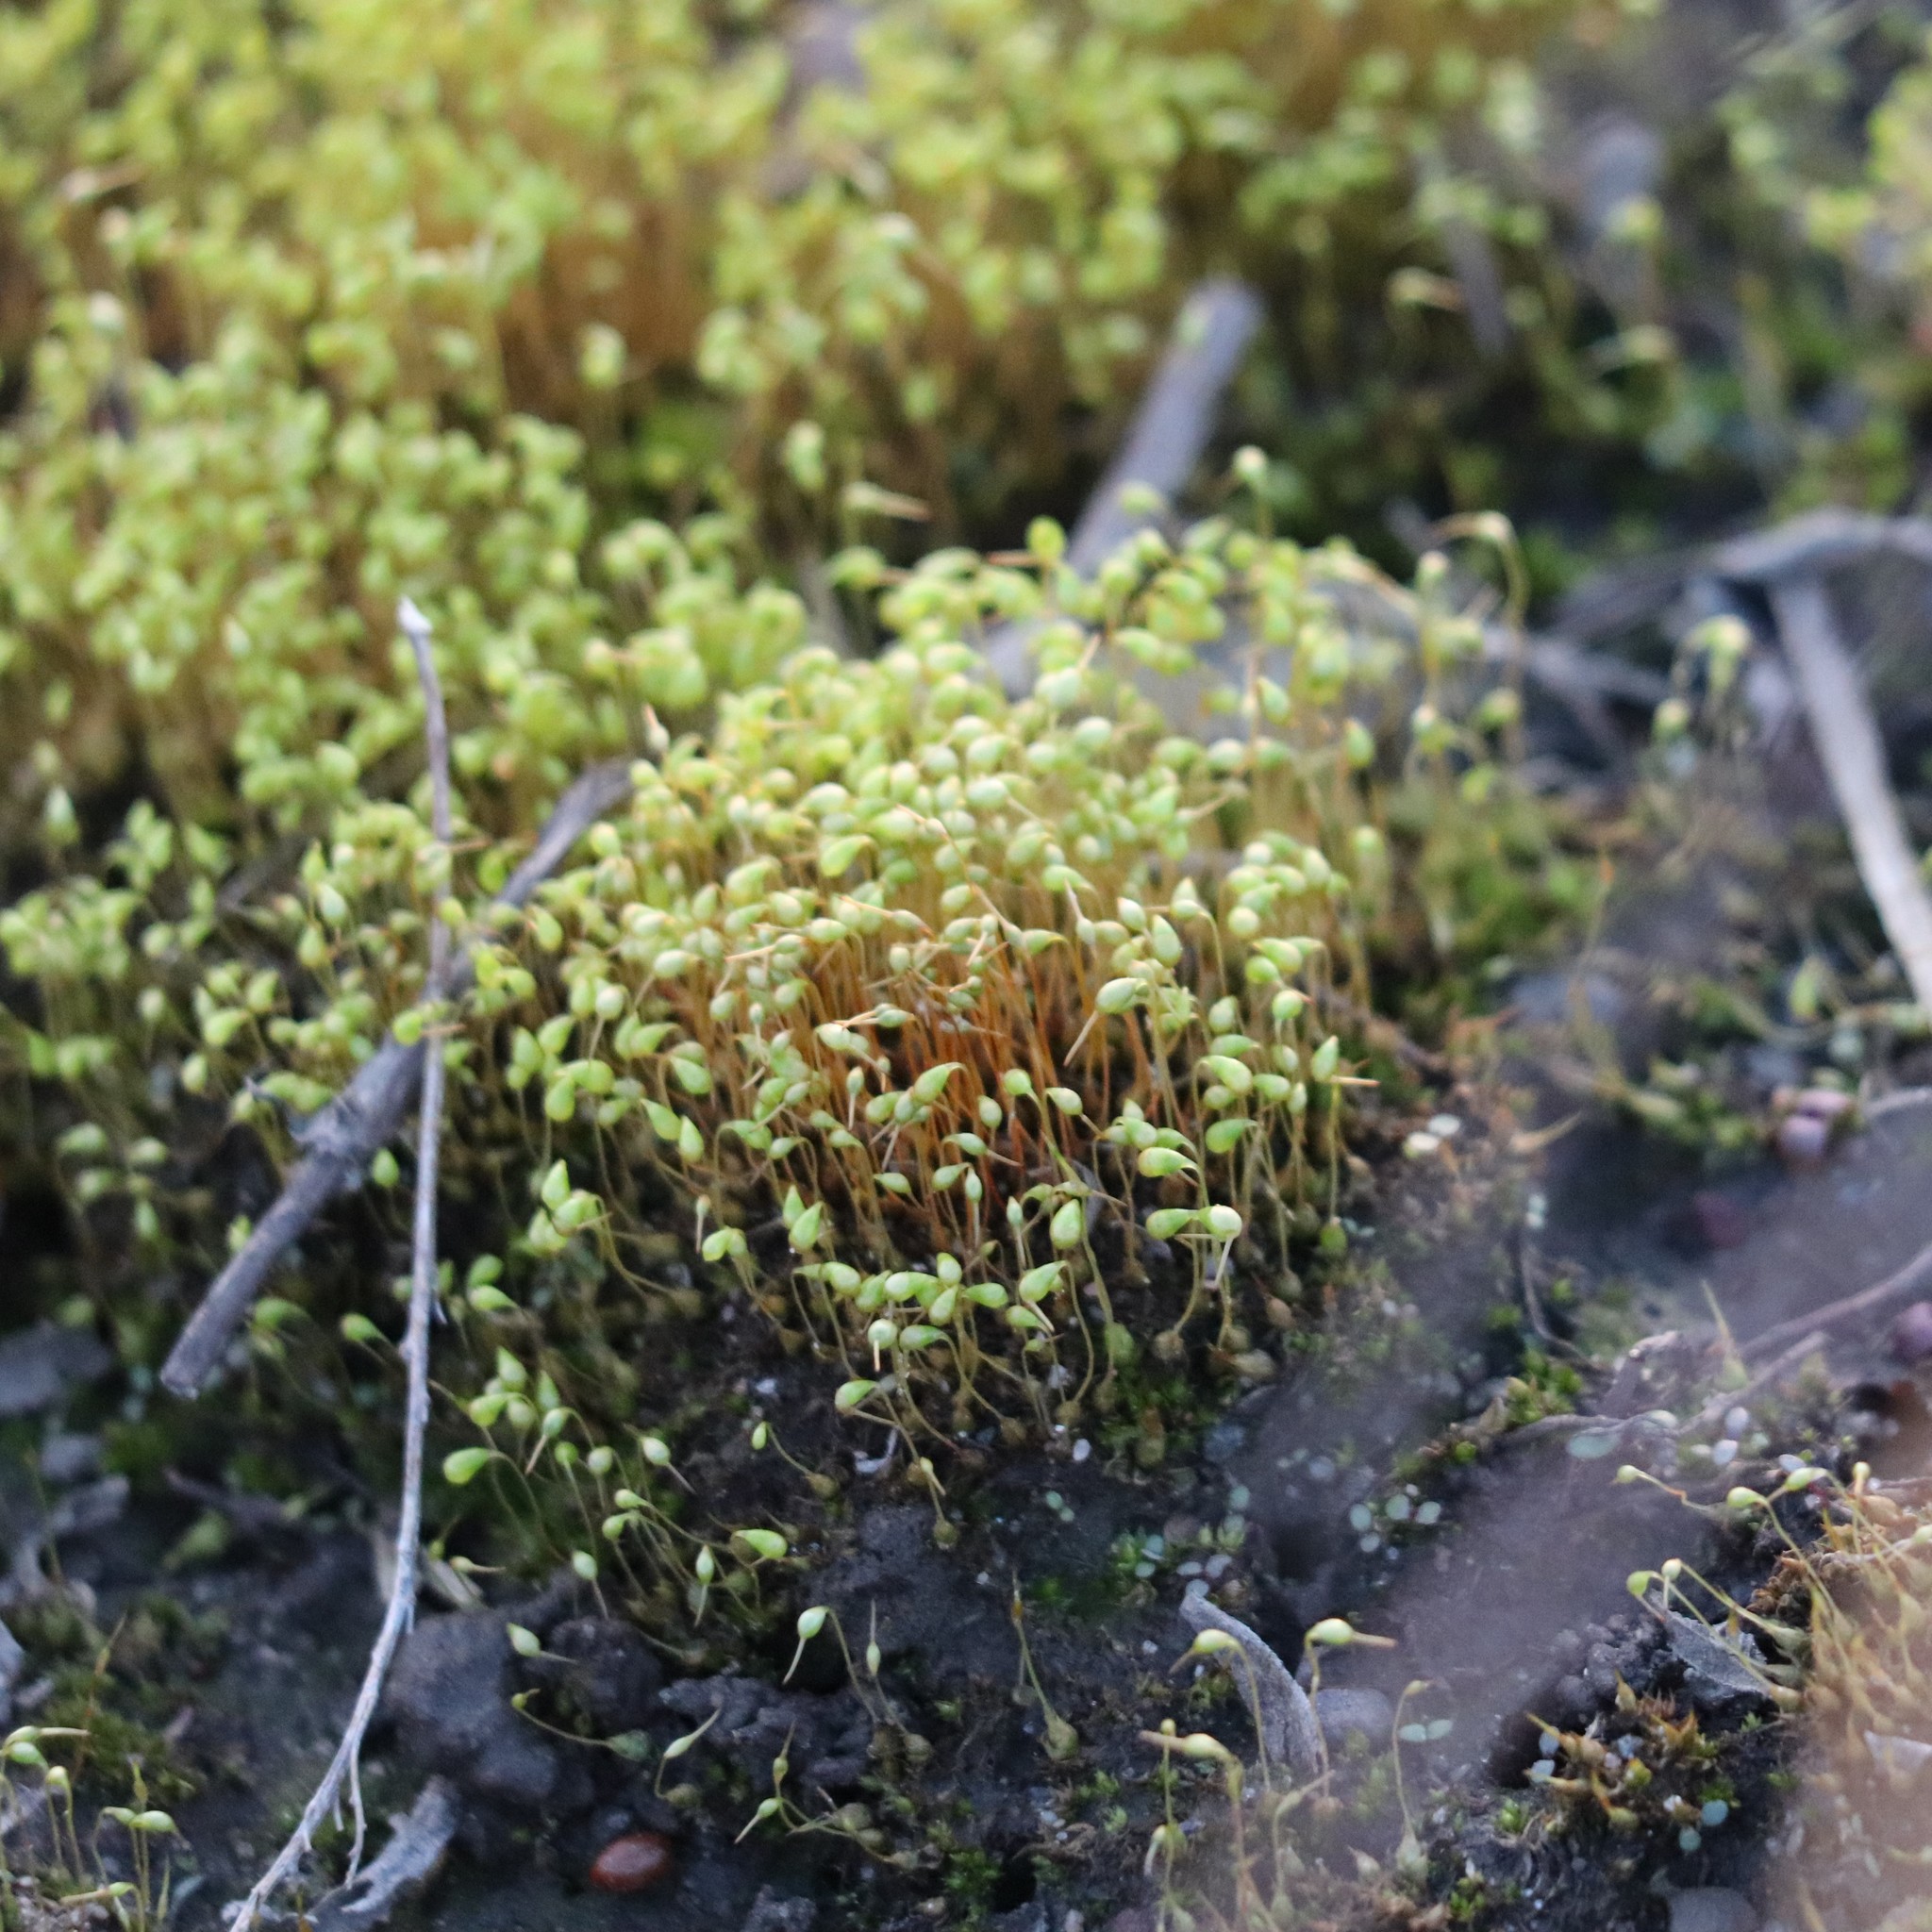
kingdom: Plantae
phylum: Bryophyta
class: Bryopsida
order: Funariales
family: Funariaceae
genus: Funaria
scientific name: Funaria hygrometrica
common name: Common cord moss
